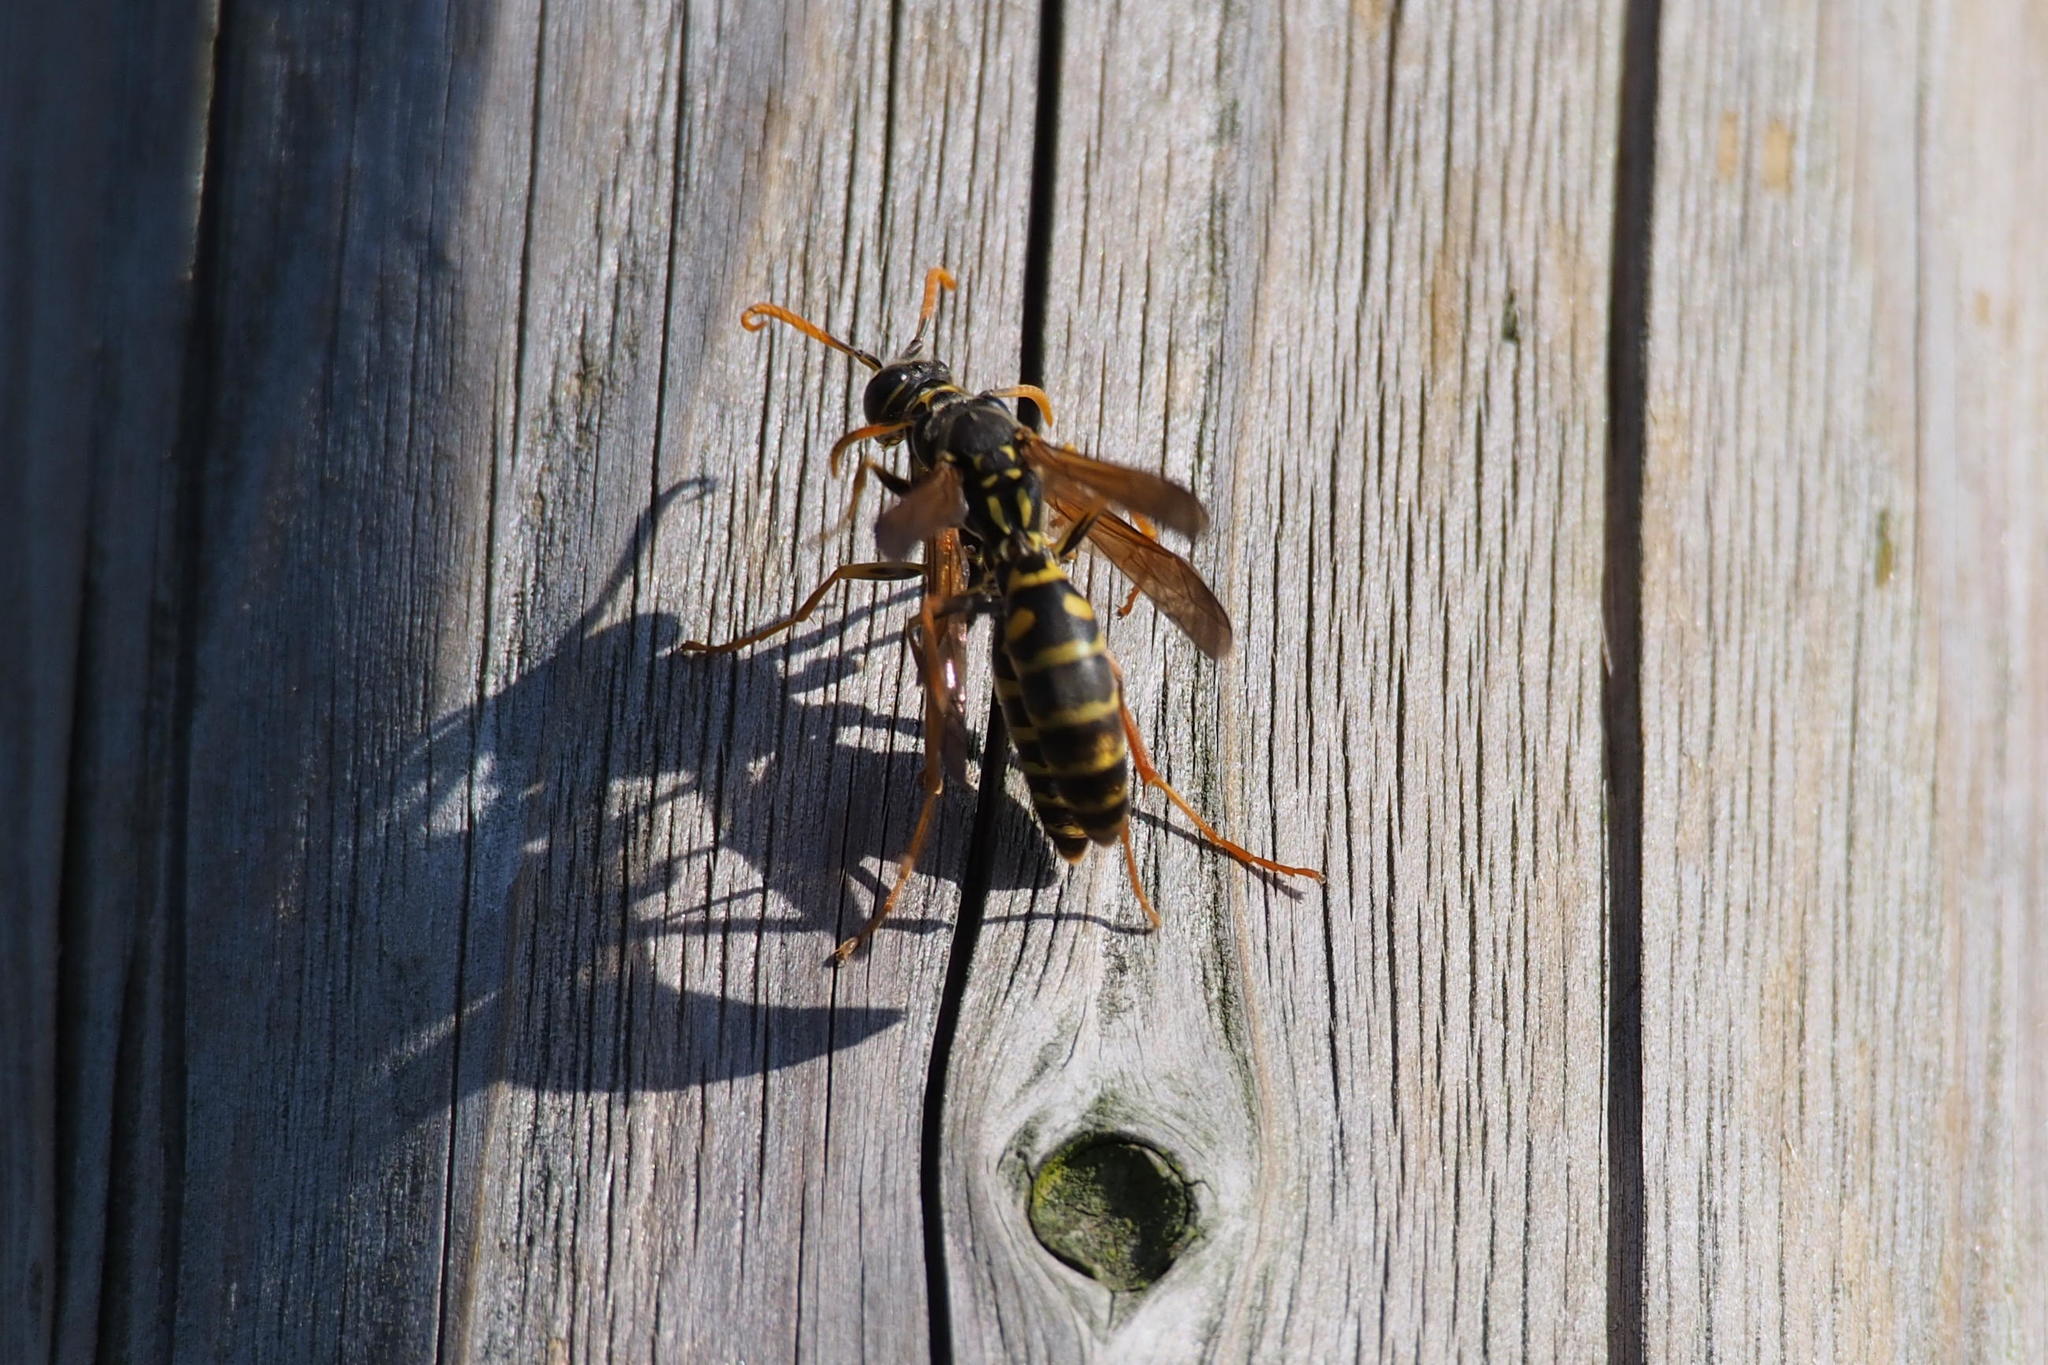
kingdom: Animalia
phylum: Arthropoda
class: Insecta
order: Hymenoptera
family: Eumenidae
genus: Polistes
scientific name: Polistes chinensis
